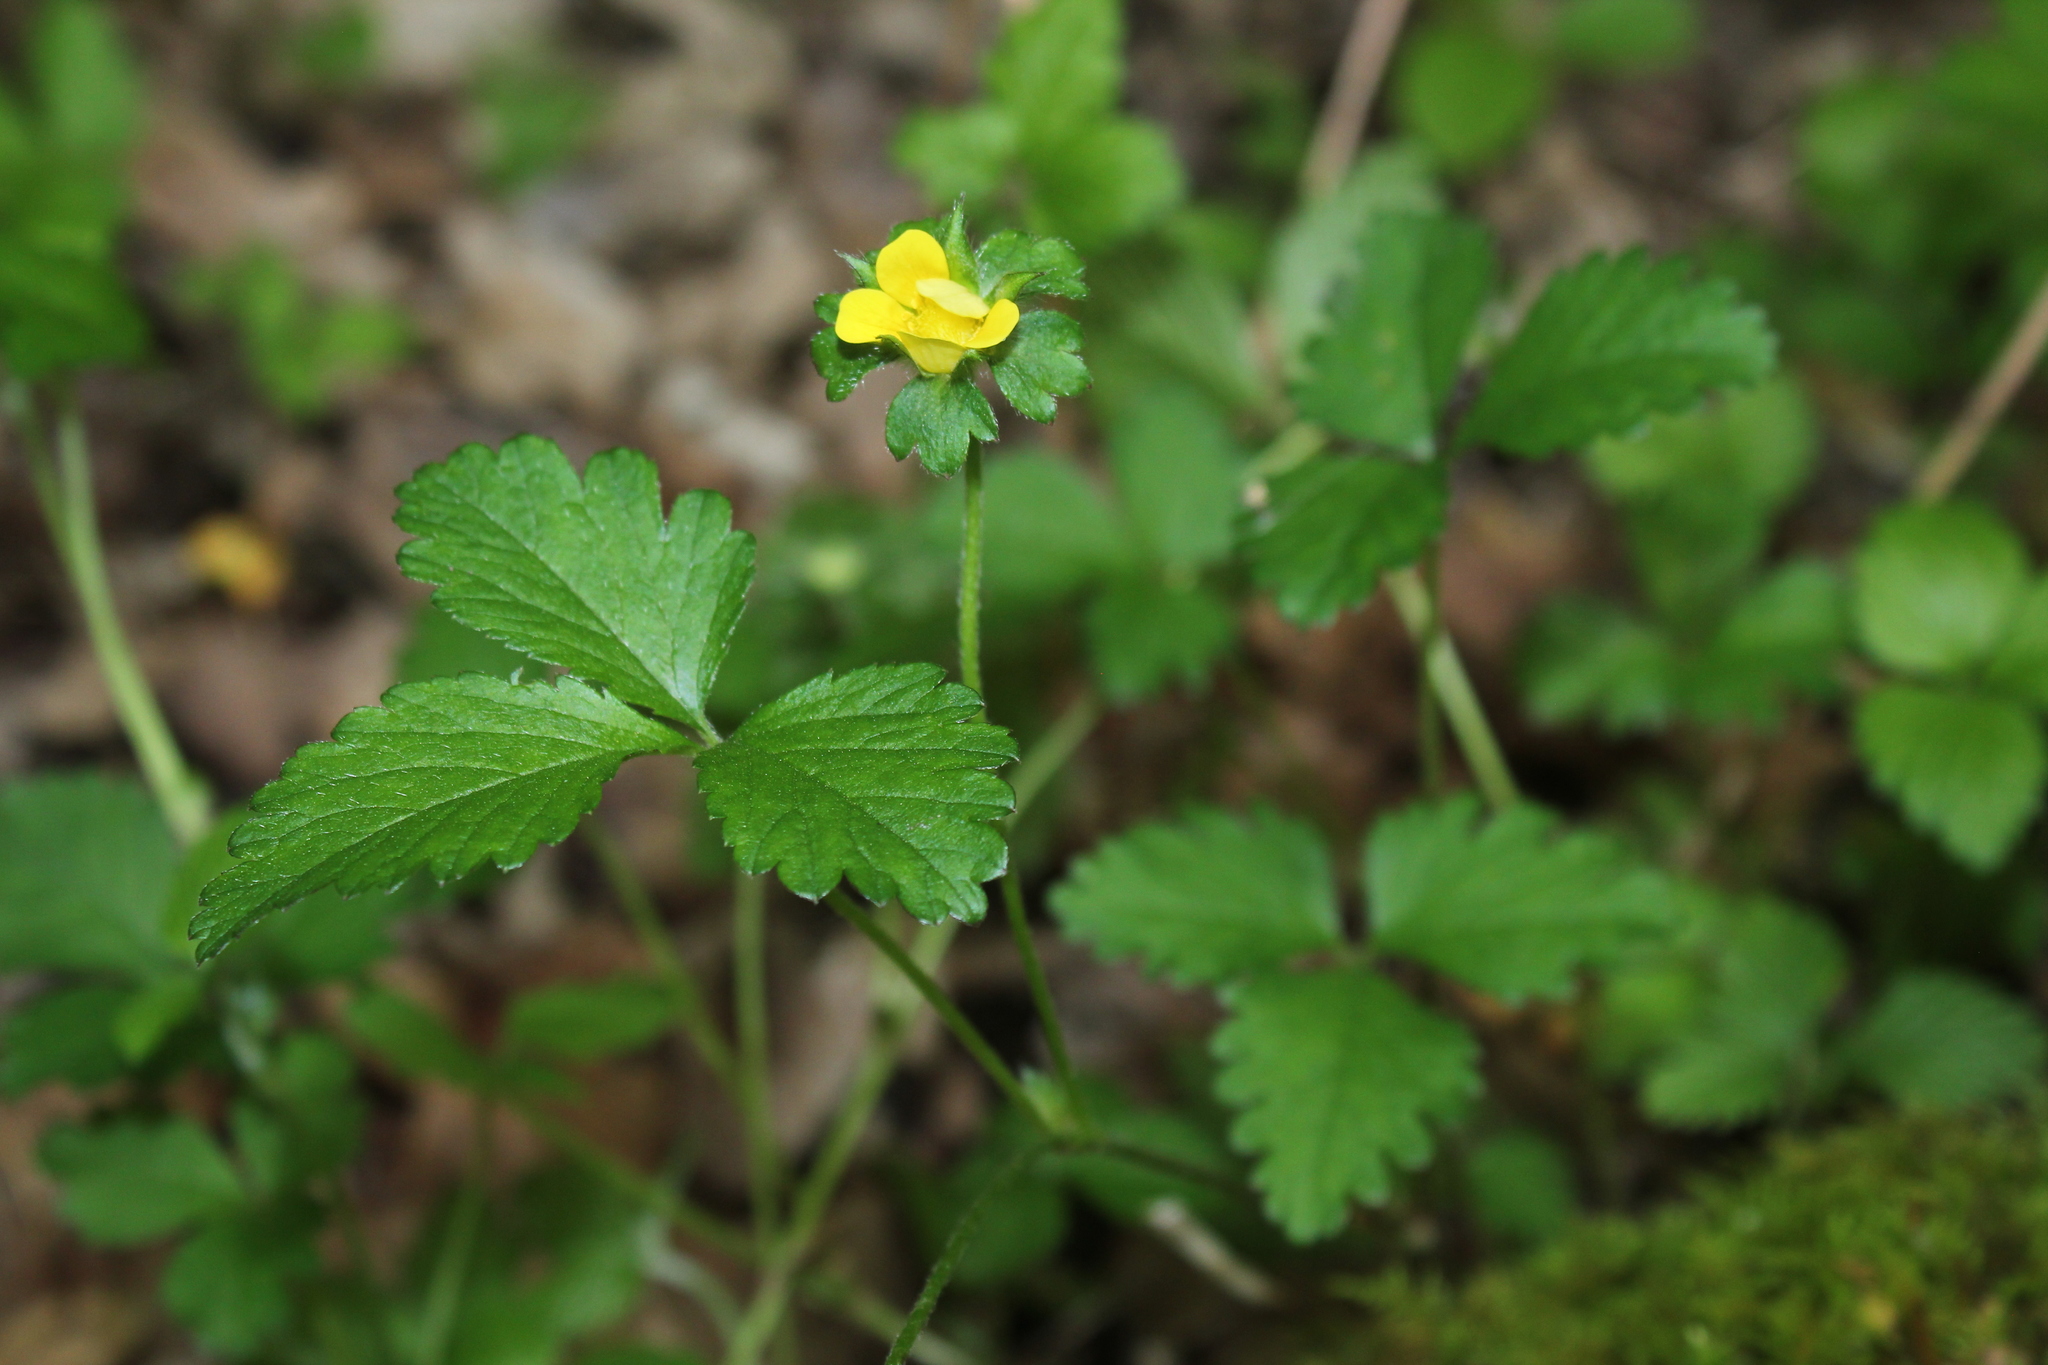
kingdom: Plantae
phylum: Tracheophyta
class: Magnoliopsida
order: Rosales
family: Rosaceae
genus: Potentilla
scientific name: Potentilla indica
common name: Yellow-flowered strawberry
